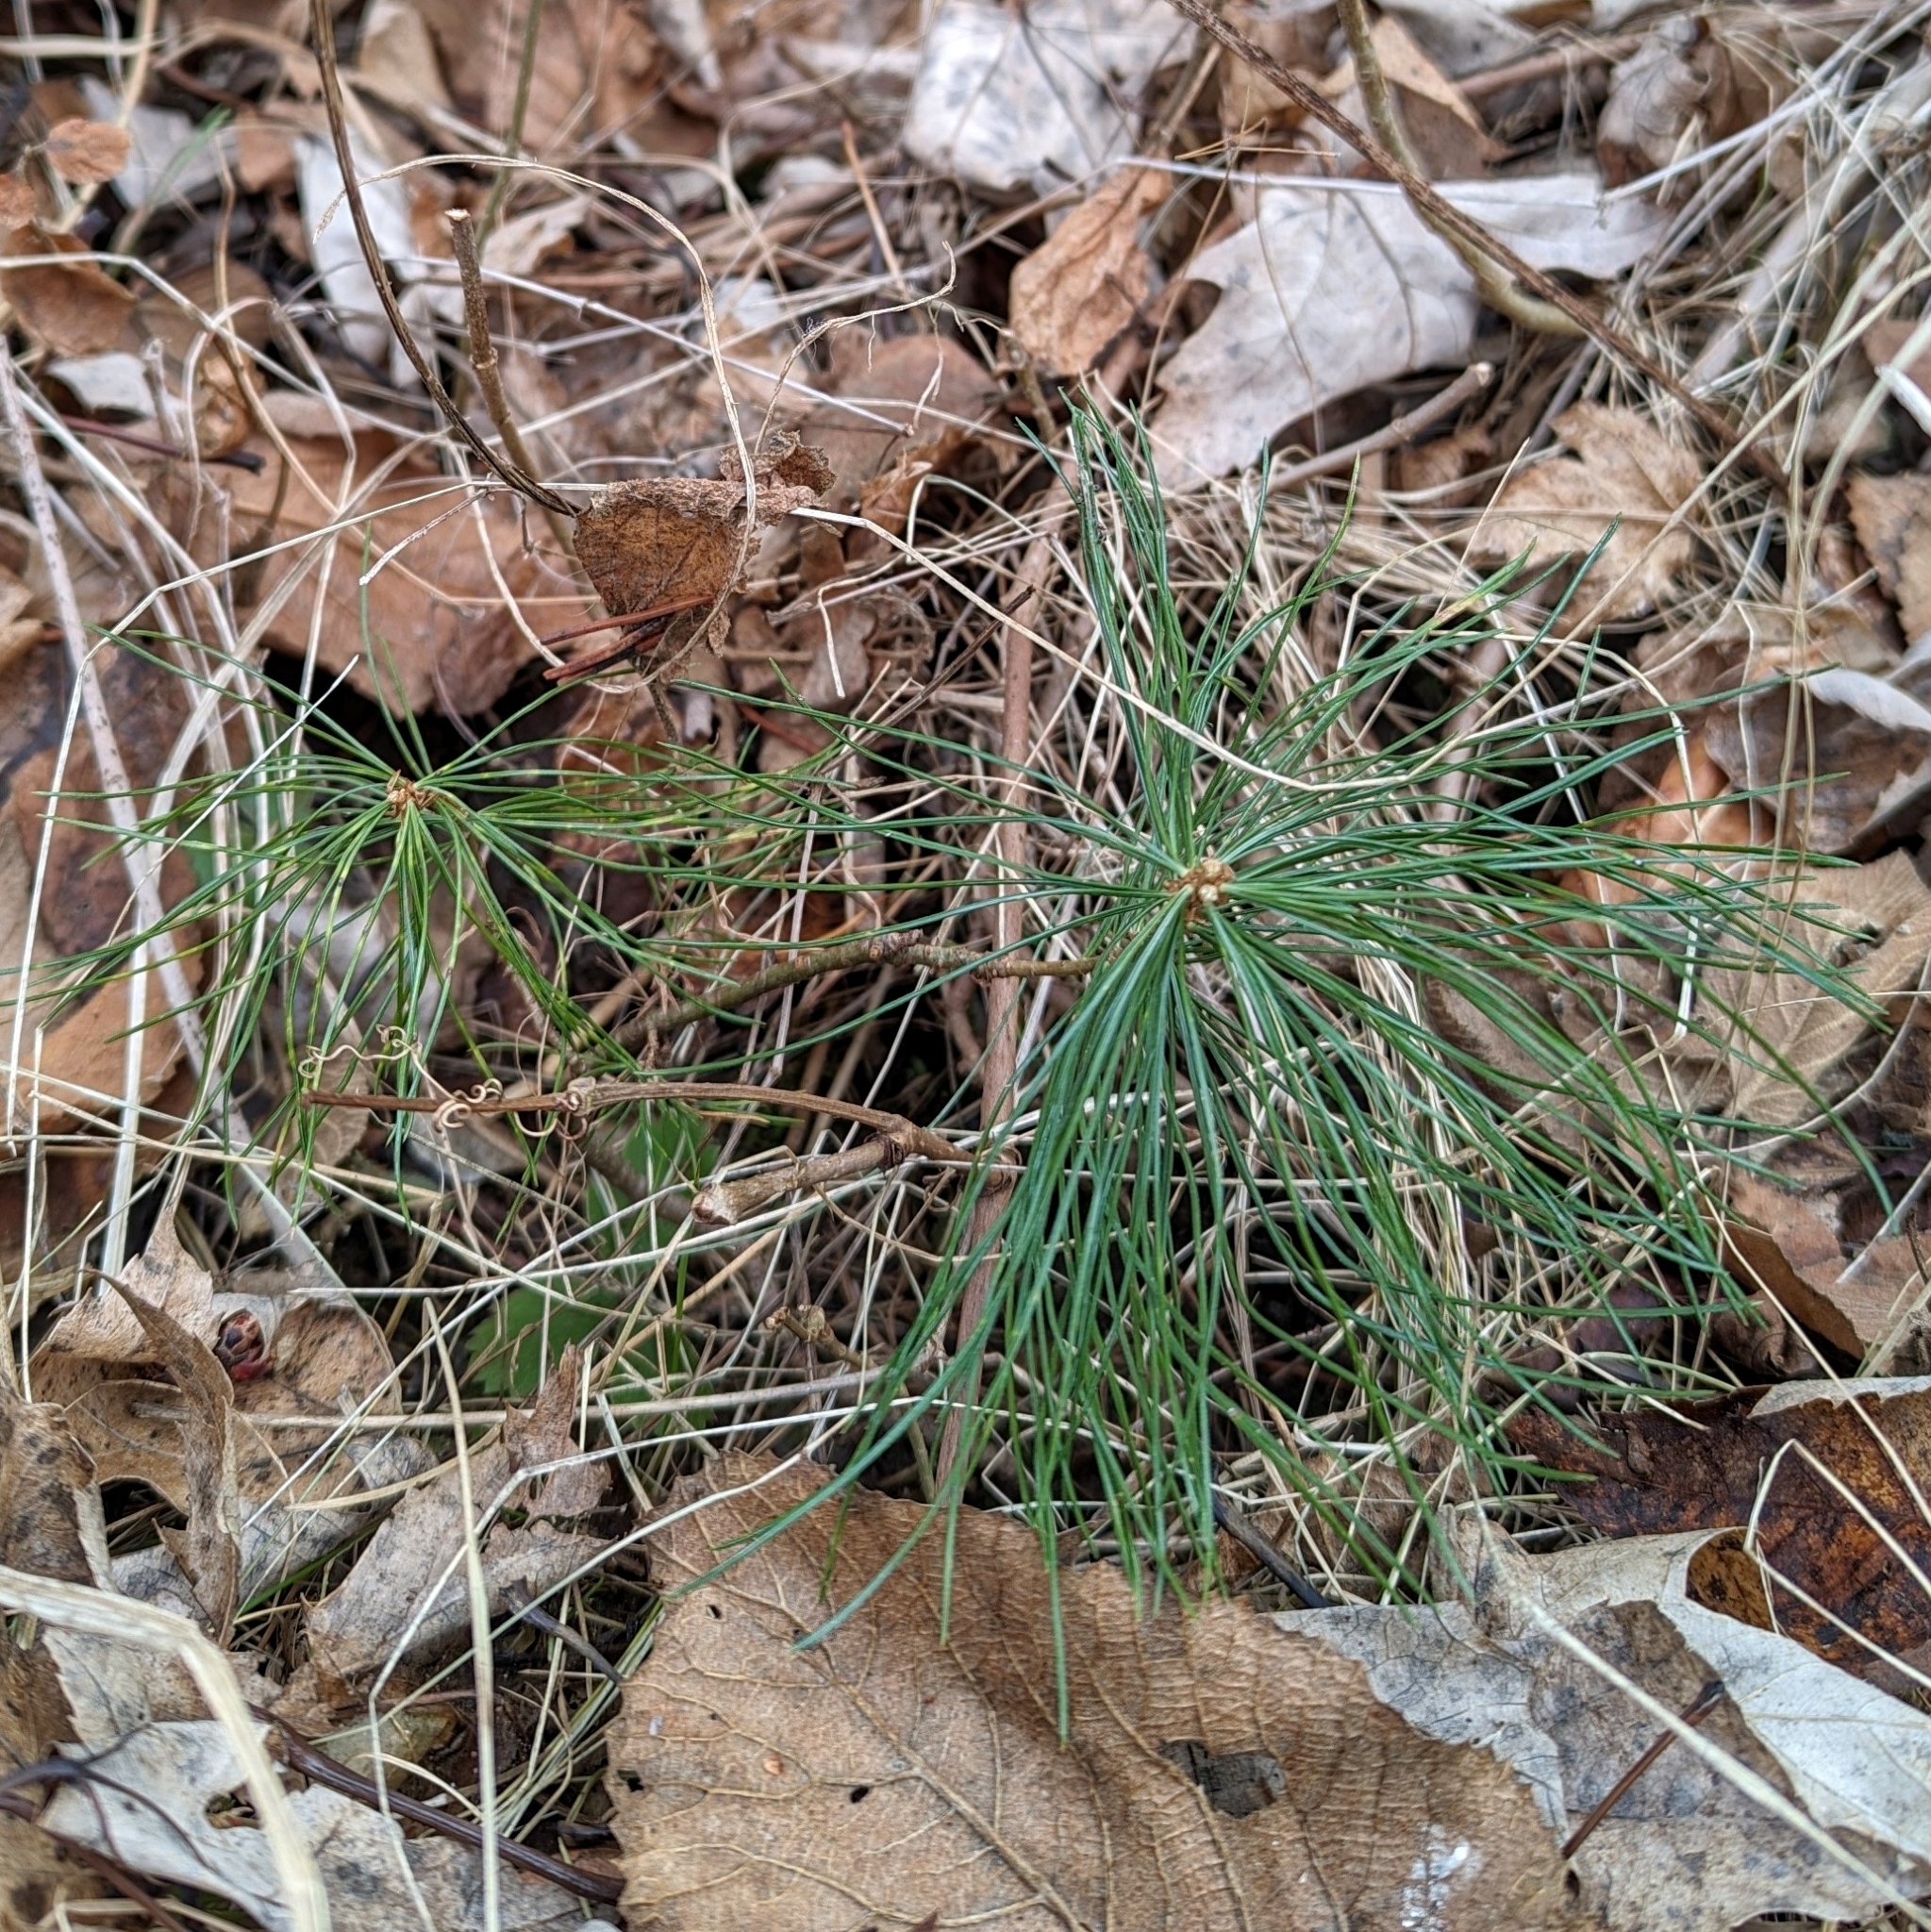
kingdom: Plantae
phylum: Tracheophyta
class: Pinopsida
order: Pinales
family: Pinaceae
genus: Pinus
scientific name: Pinus strobus
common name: Weymouth pine
